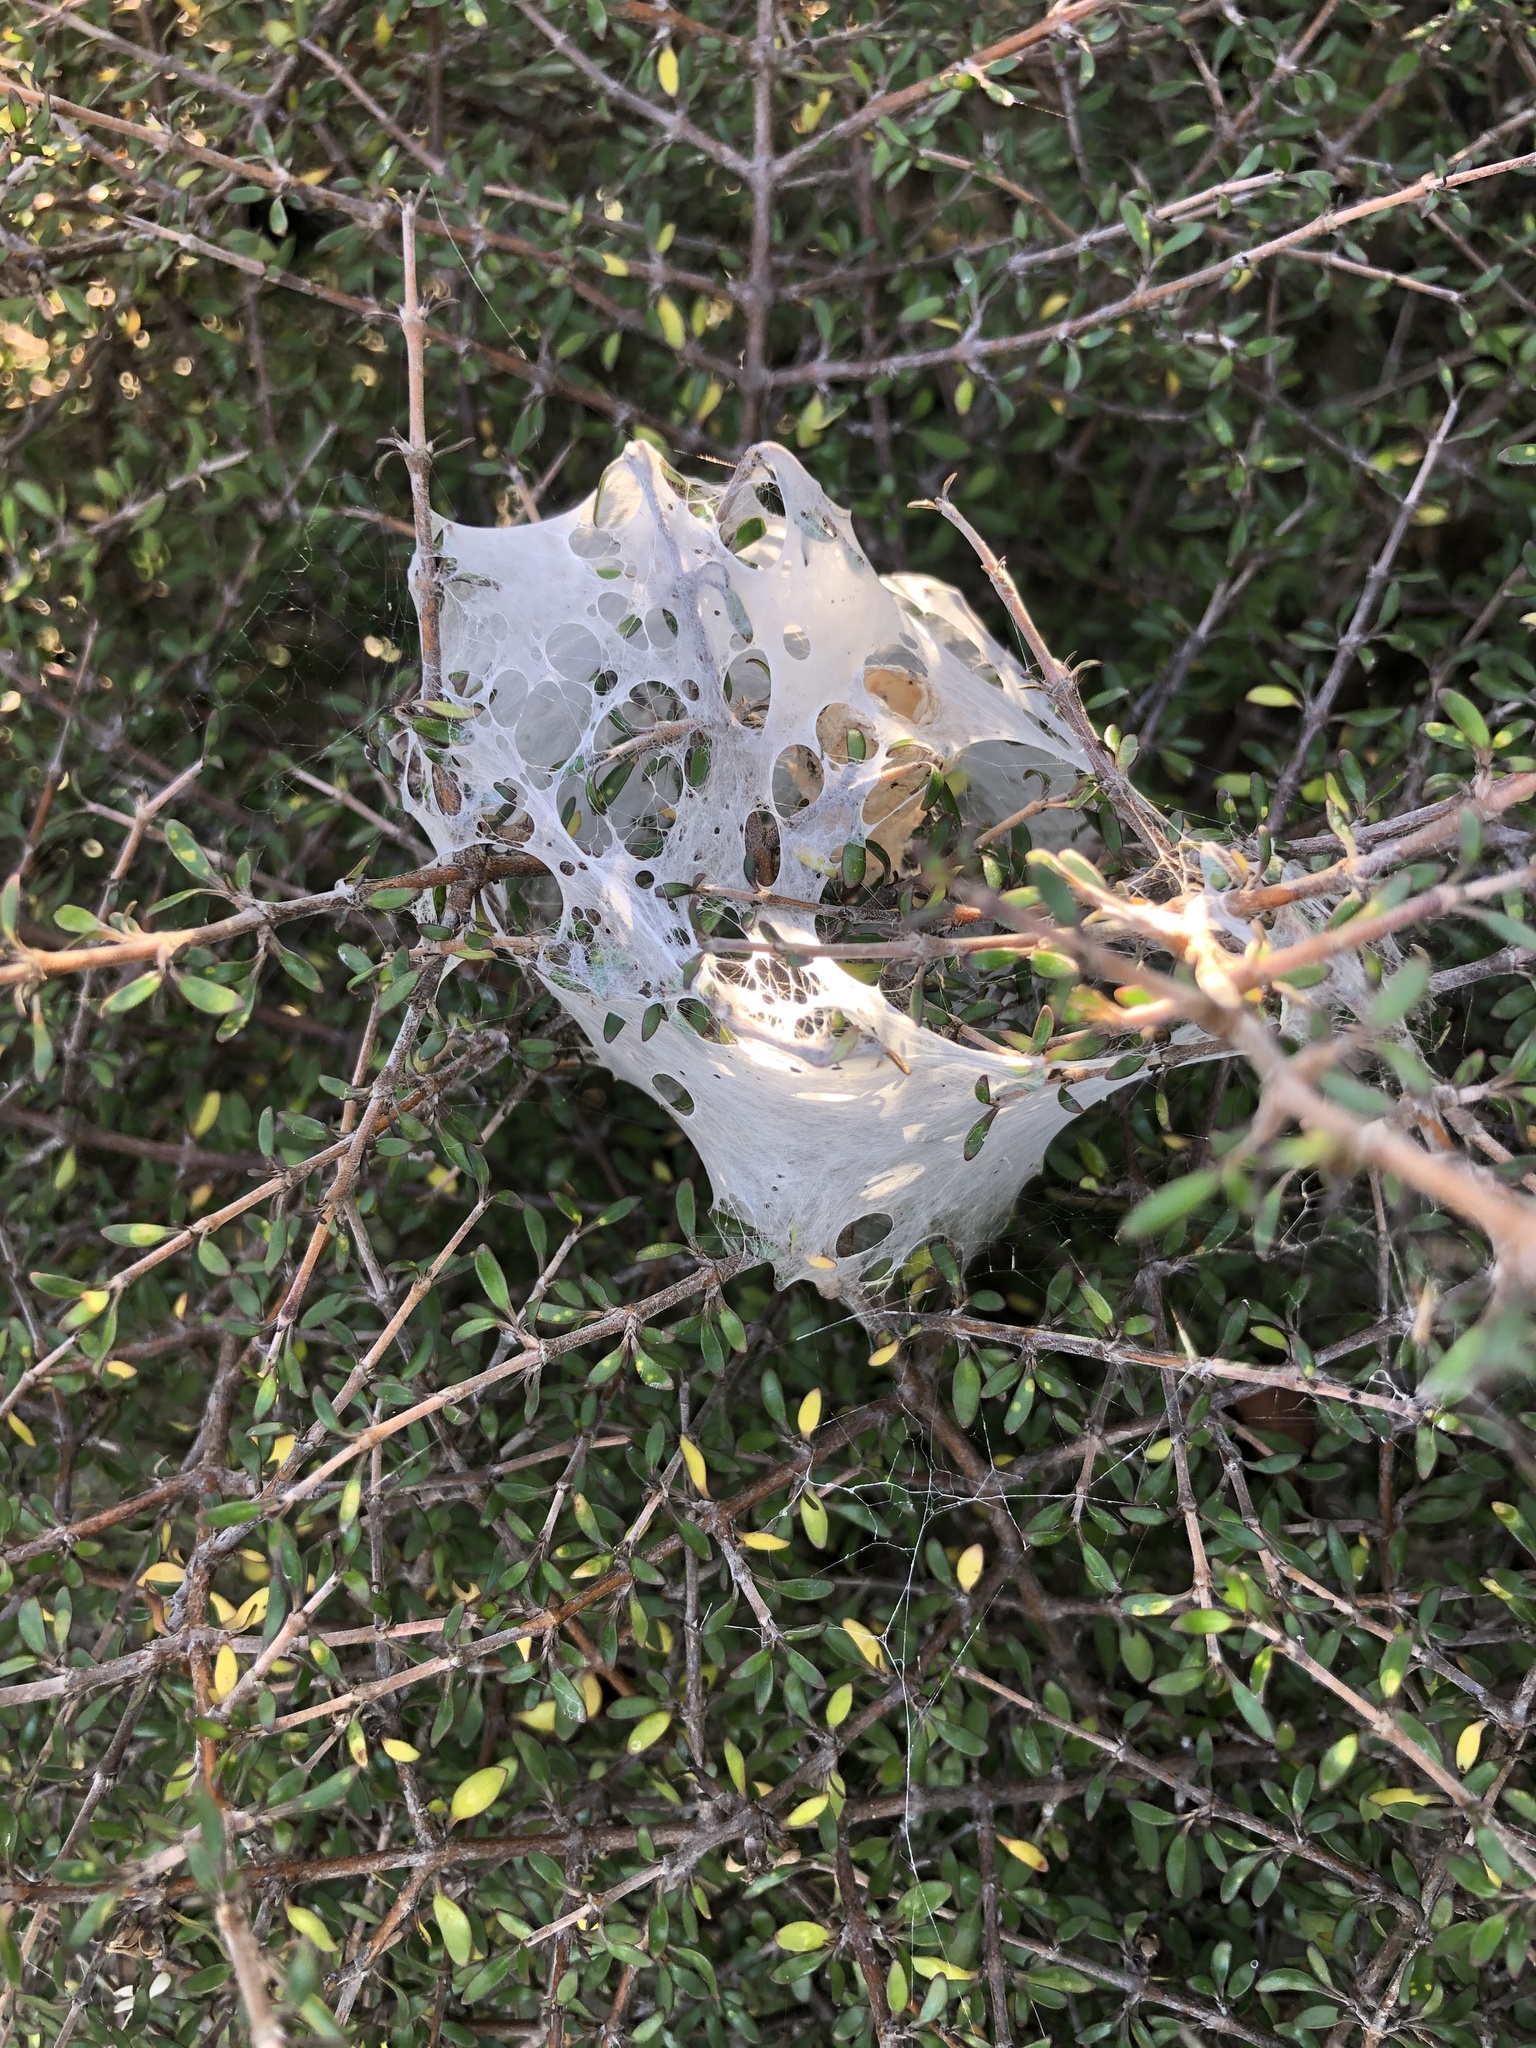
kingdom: Animalia
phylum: Arthropoda
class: Arachnida
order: Araneae
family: Pisauridae
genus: Dolomedes
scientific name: Dolomedes minor
